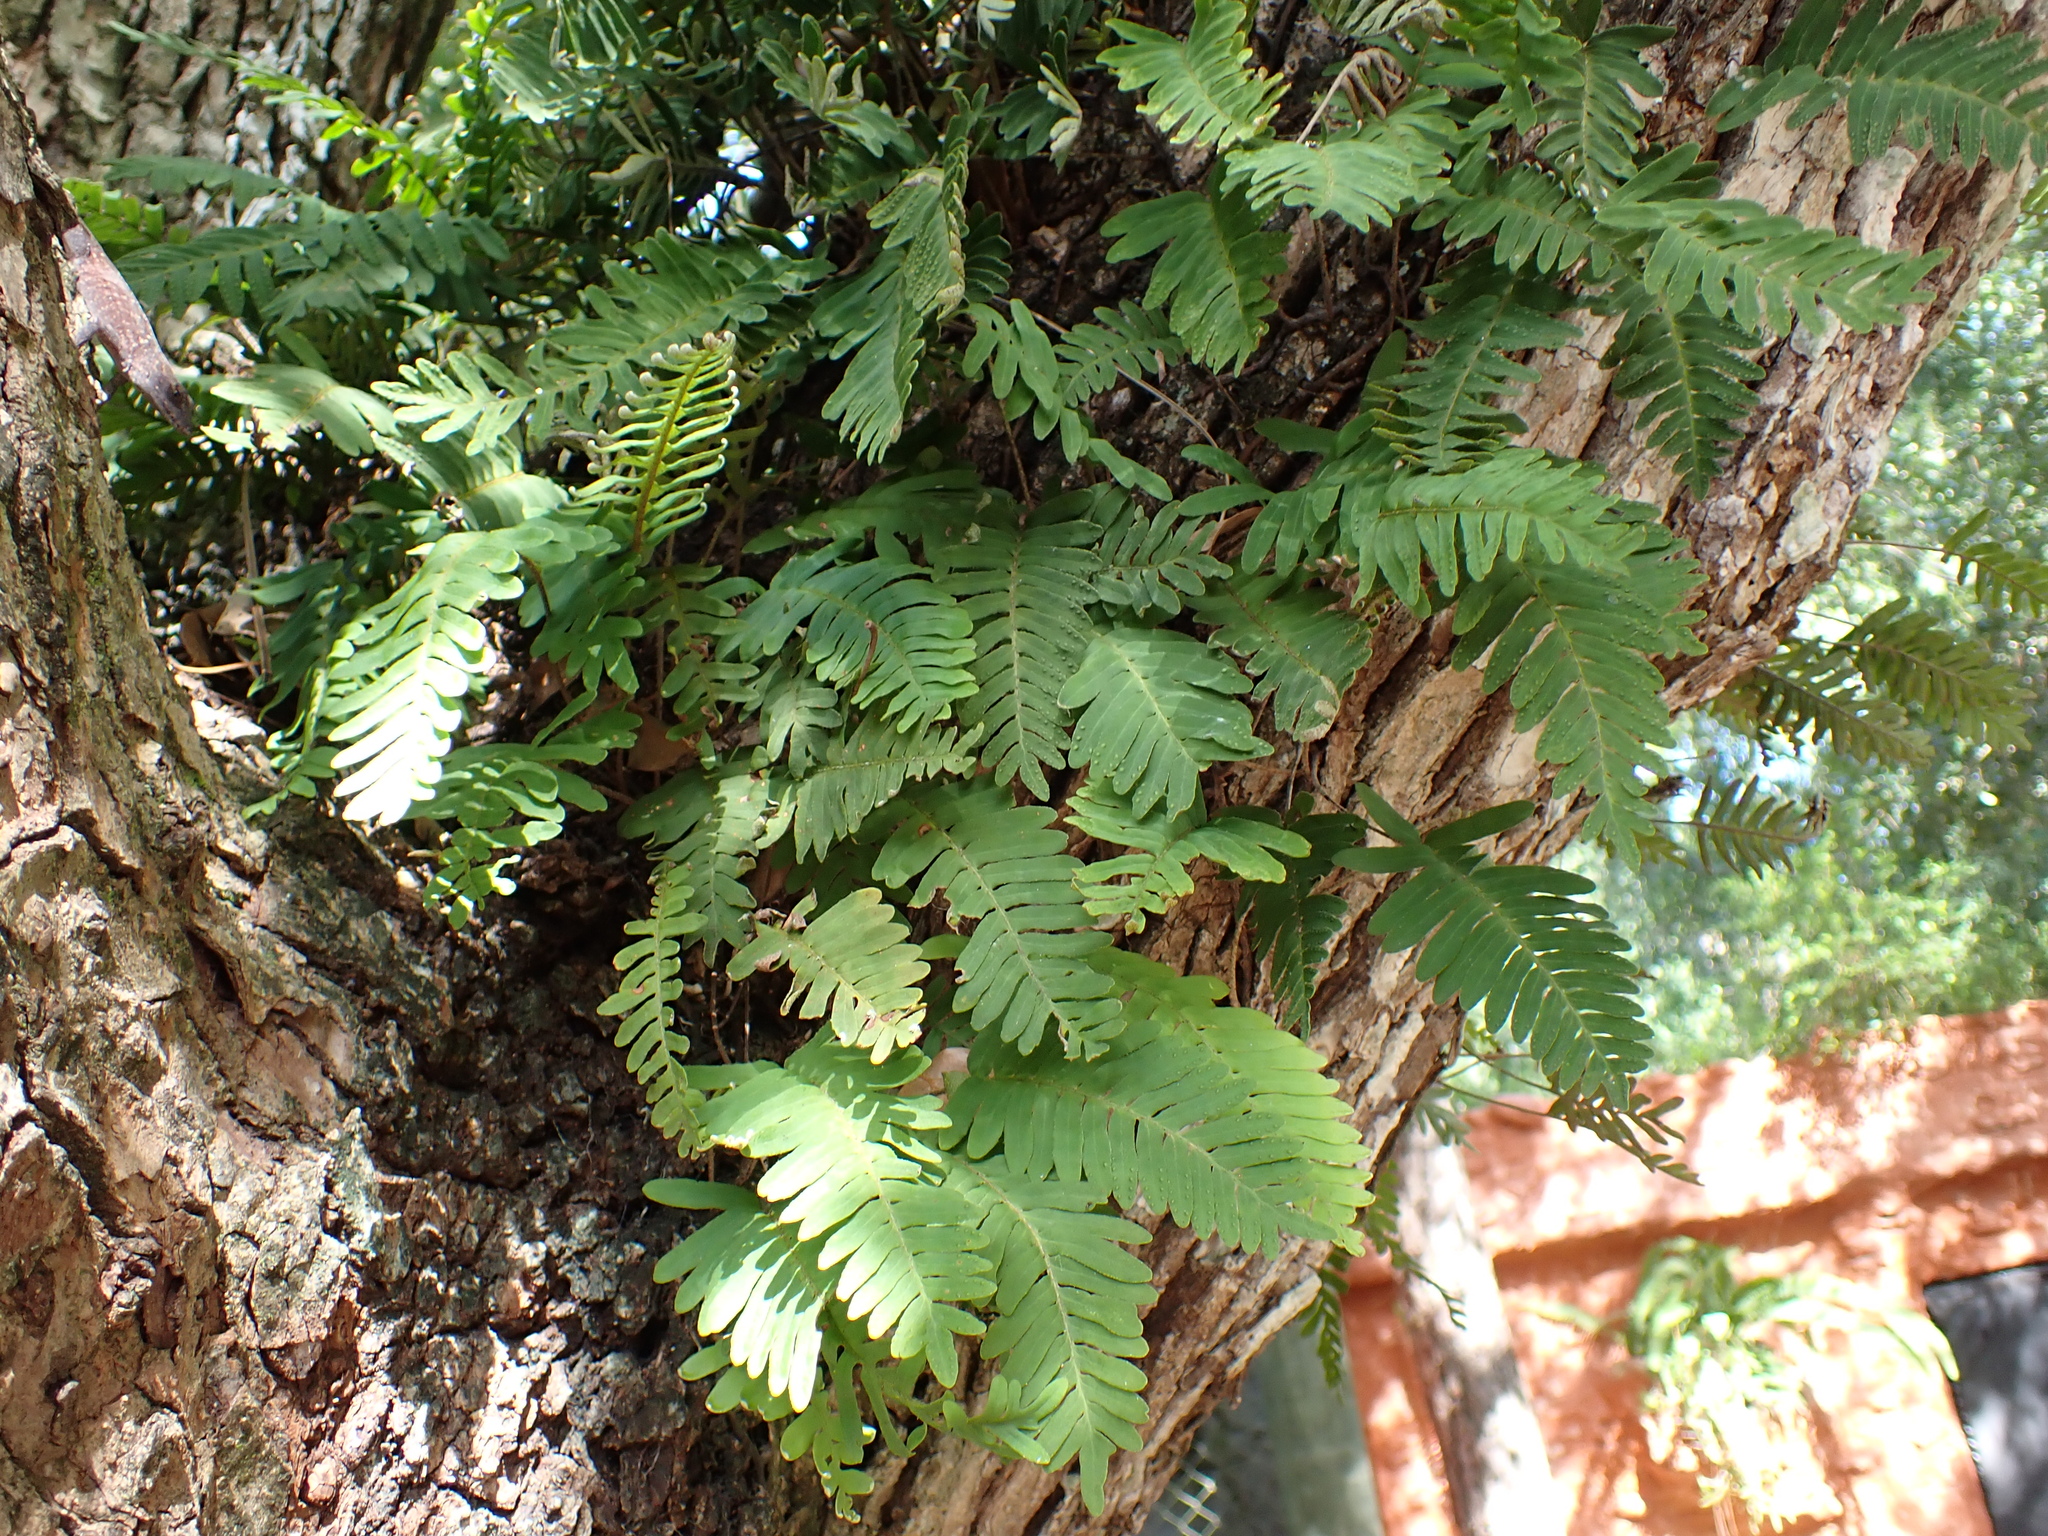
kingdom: Plantae
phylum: Tracheophyta
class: Polypodiopsida
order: Polypodiales
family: Polypodiaceae
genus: Pleopeltis
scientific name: Pleopeltis michauxiana
